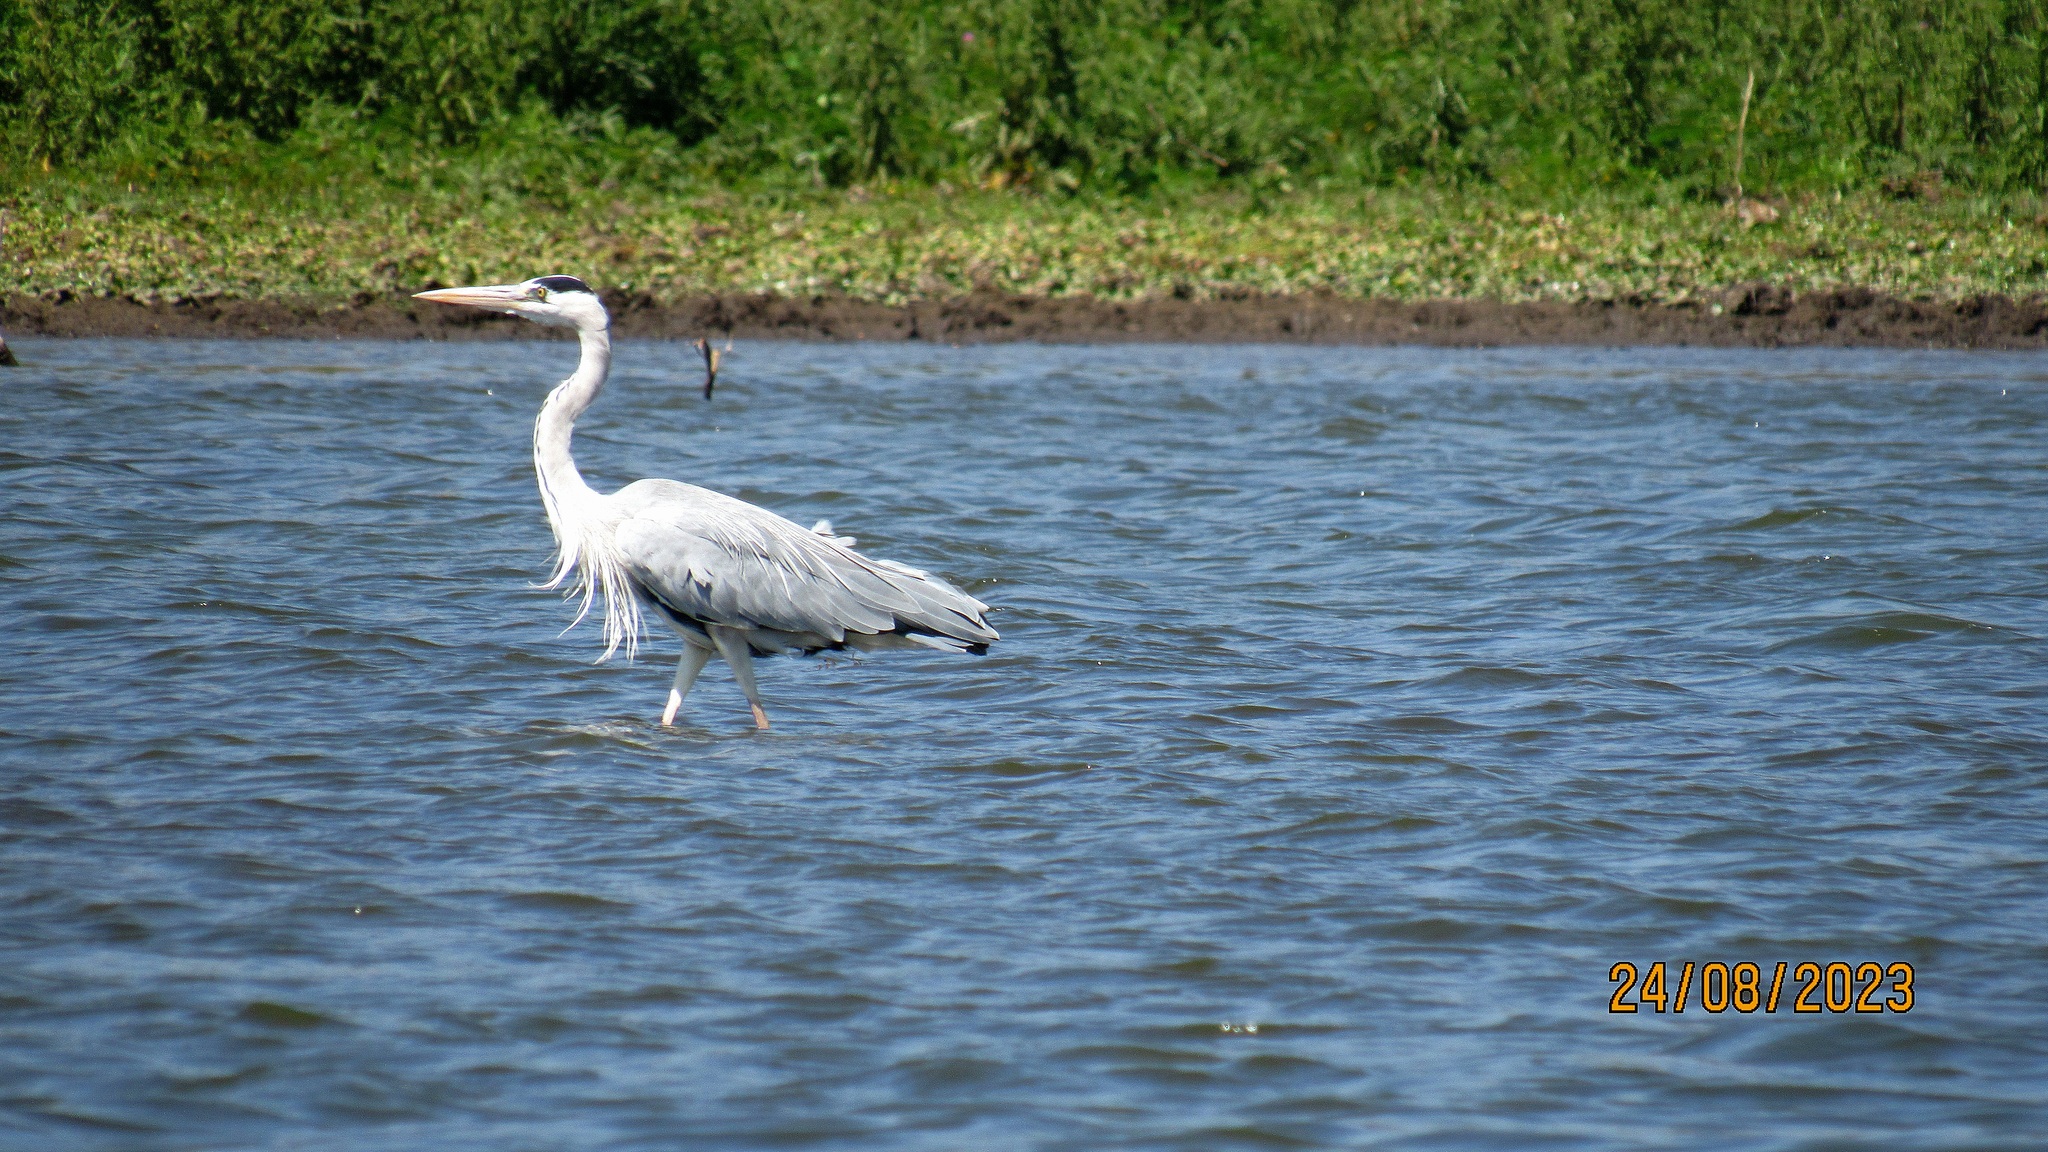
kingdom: Animalia
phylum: Chordata
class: Aves
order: Pelecaniformes
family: Ardeidae
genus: Ardea
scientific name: Ardea cinerea
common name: Grey heron
